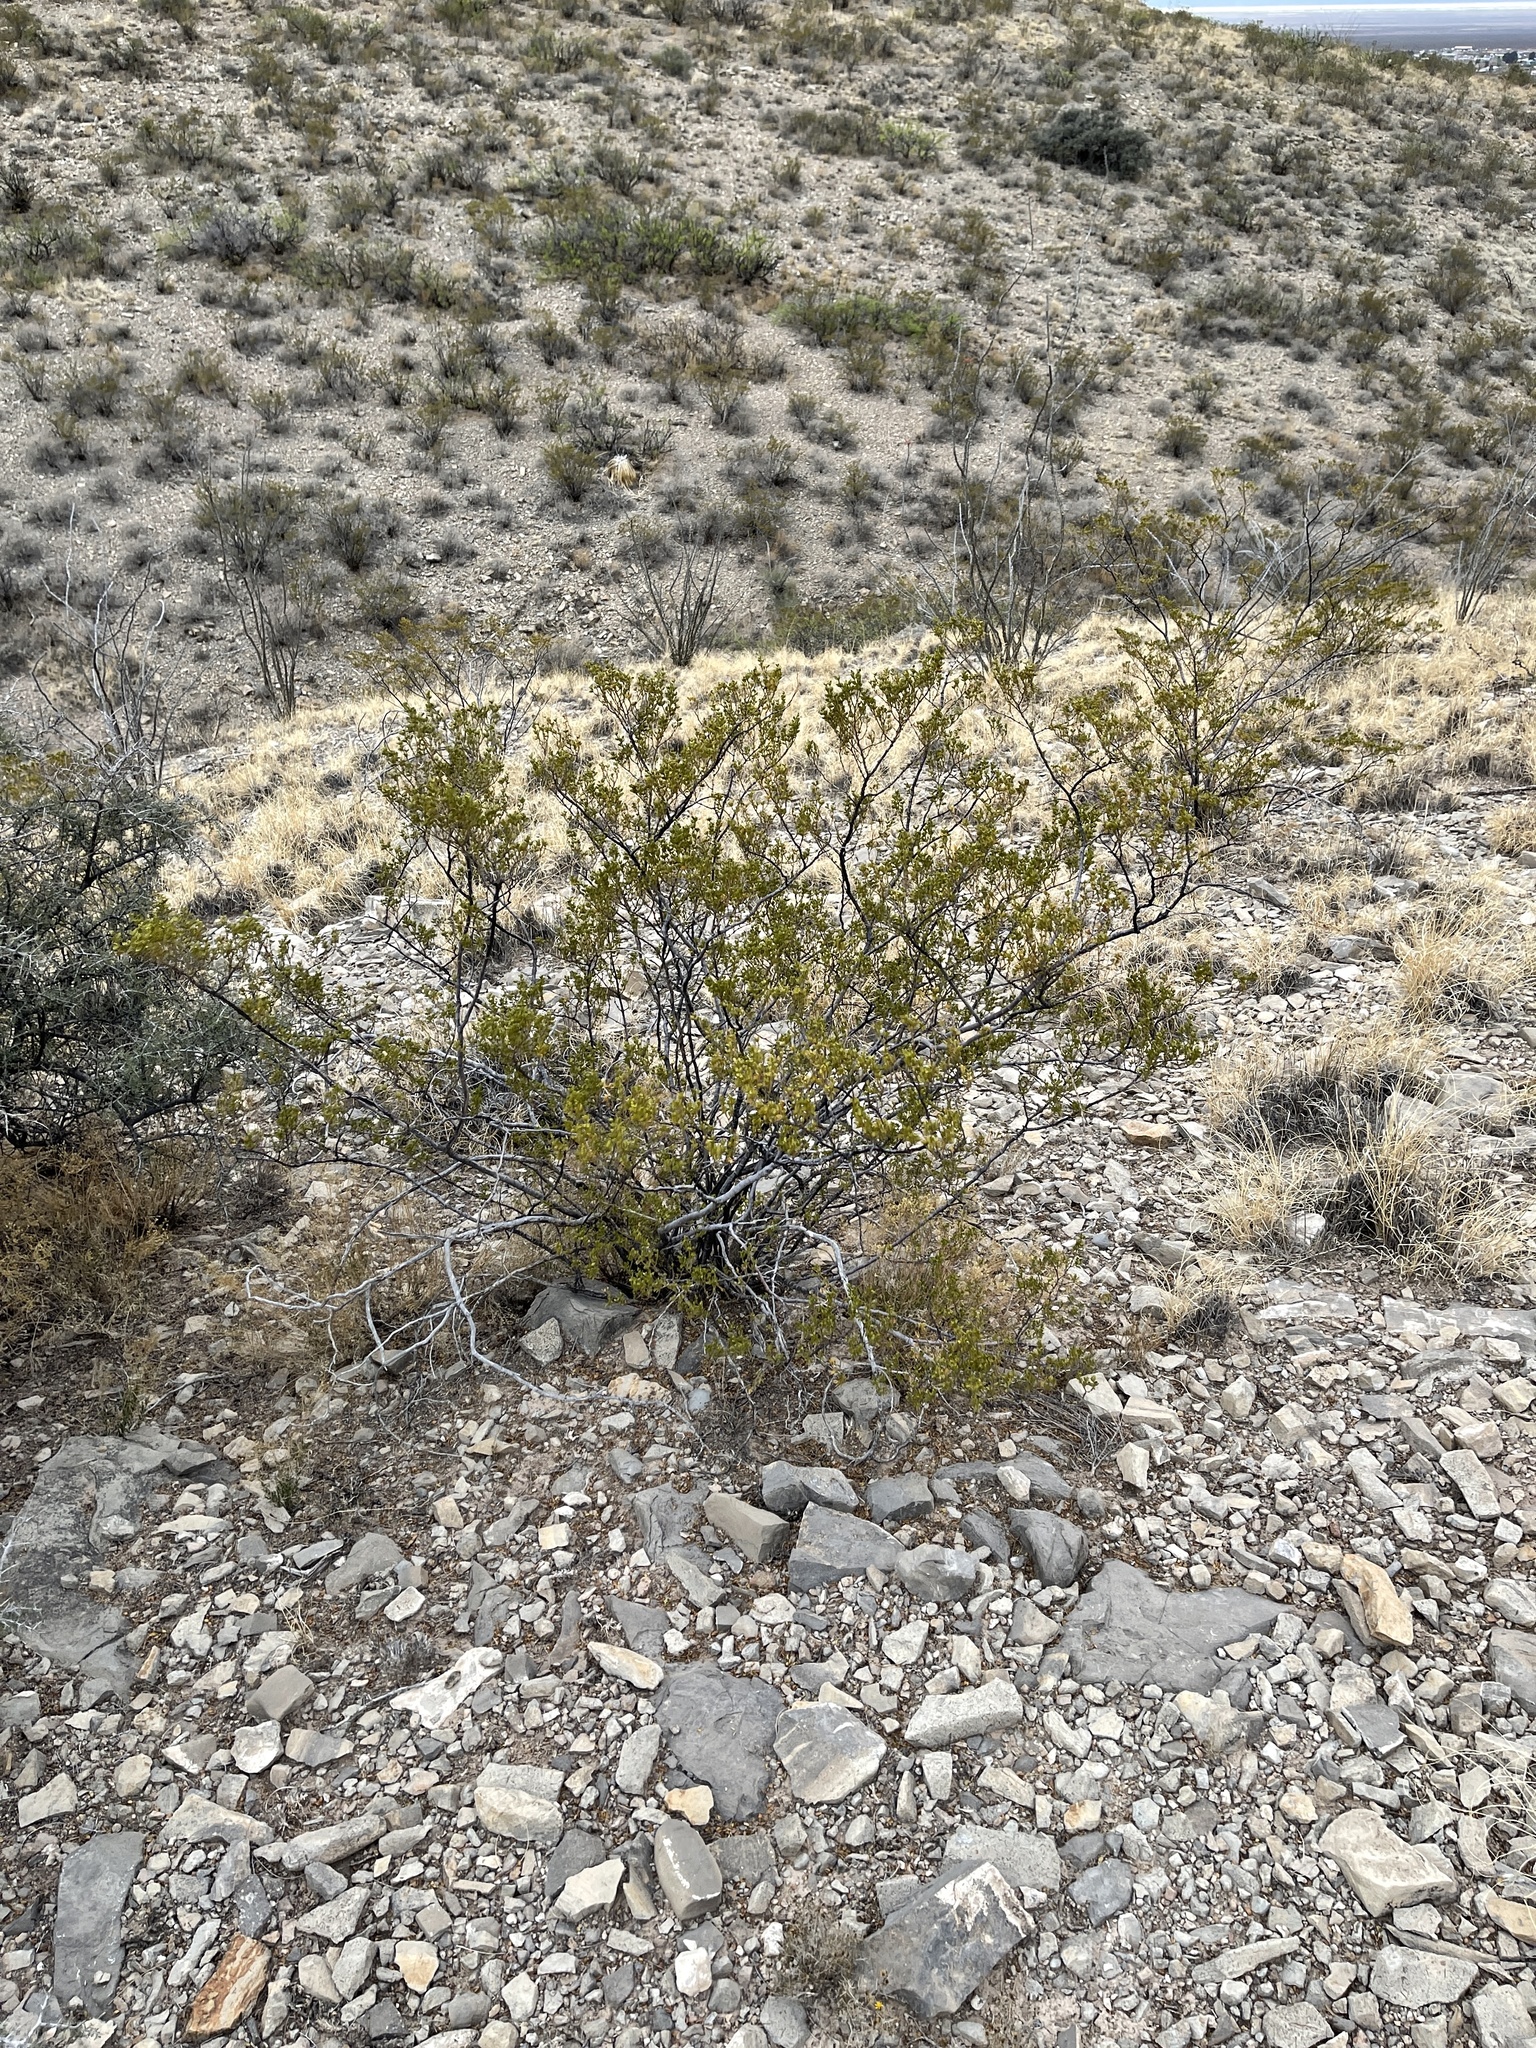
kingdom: Plantae
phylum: Tracheophyta
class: Magnoliopsida
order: Zygophyllales
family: Zygophyllaceae
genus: Larrea
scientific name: Larrea tridentata
